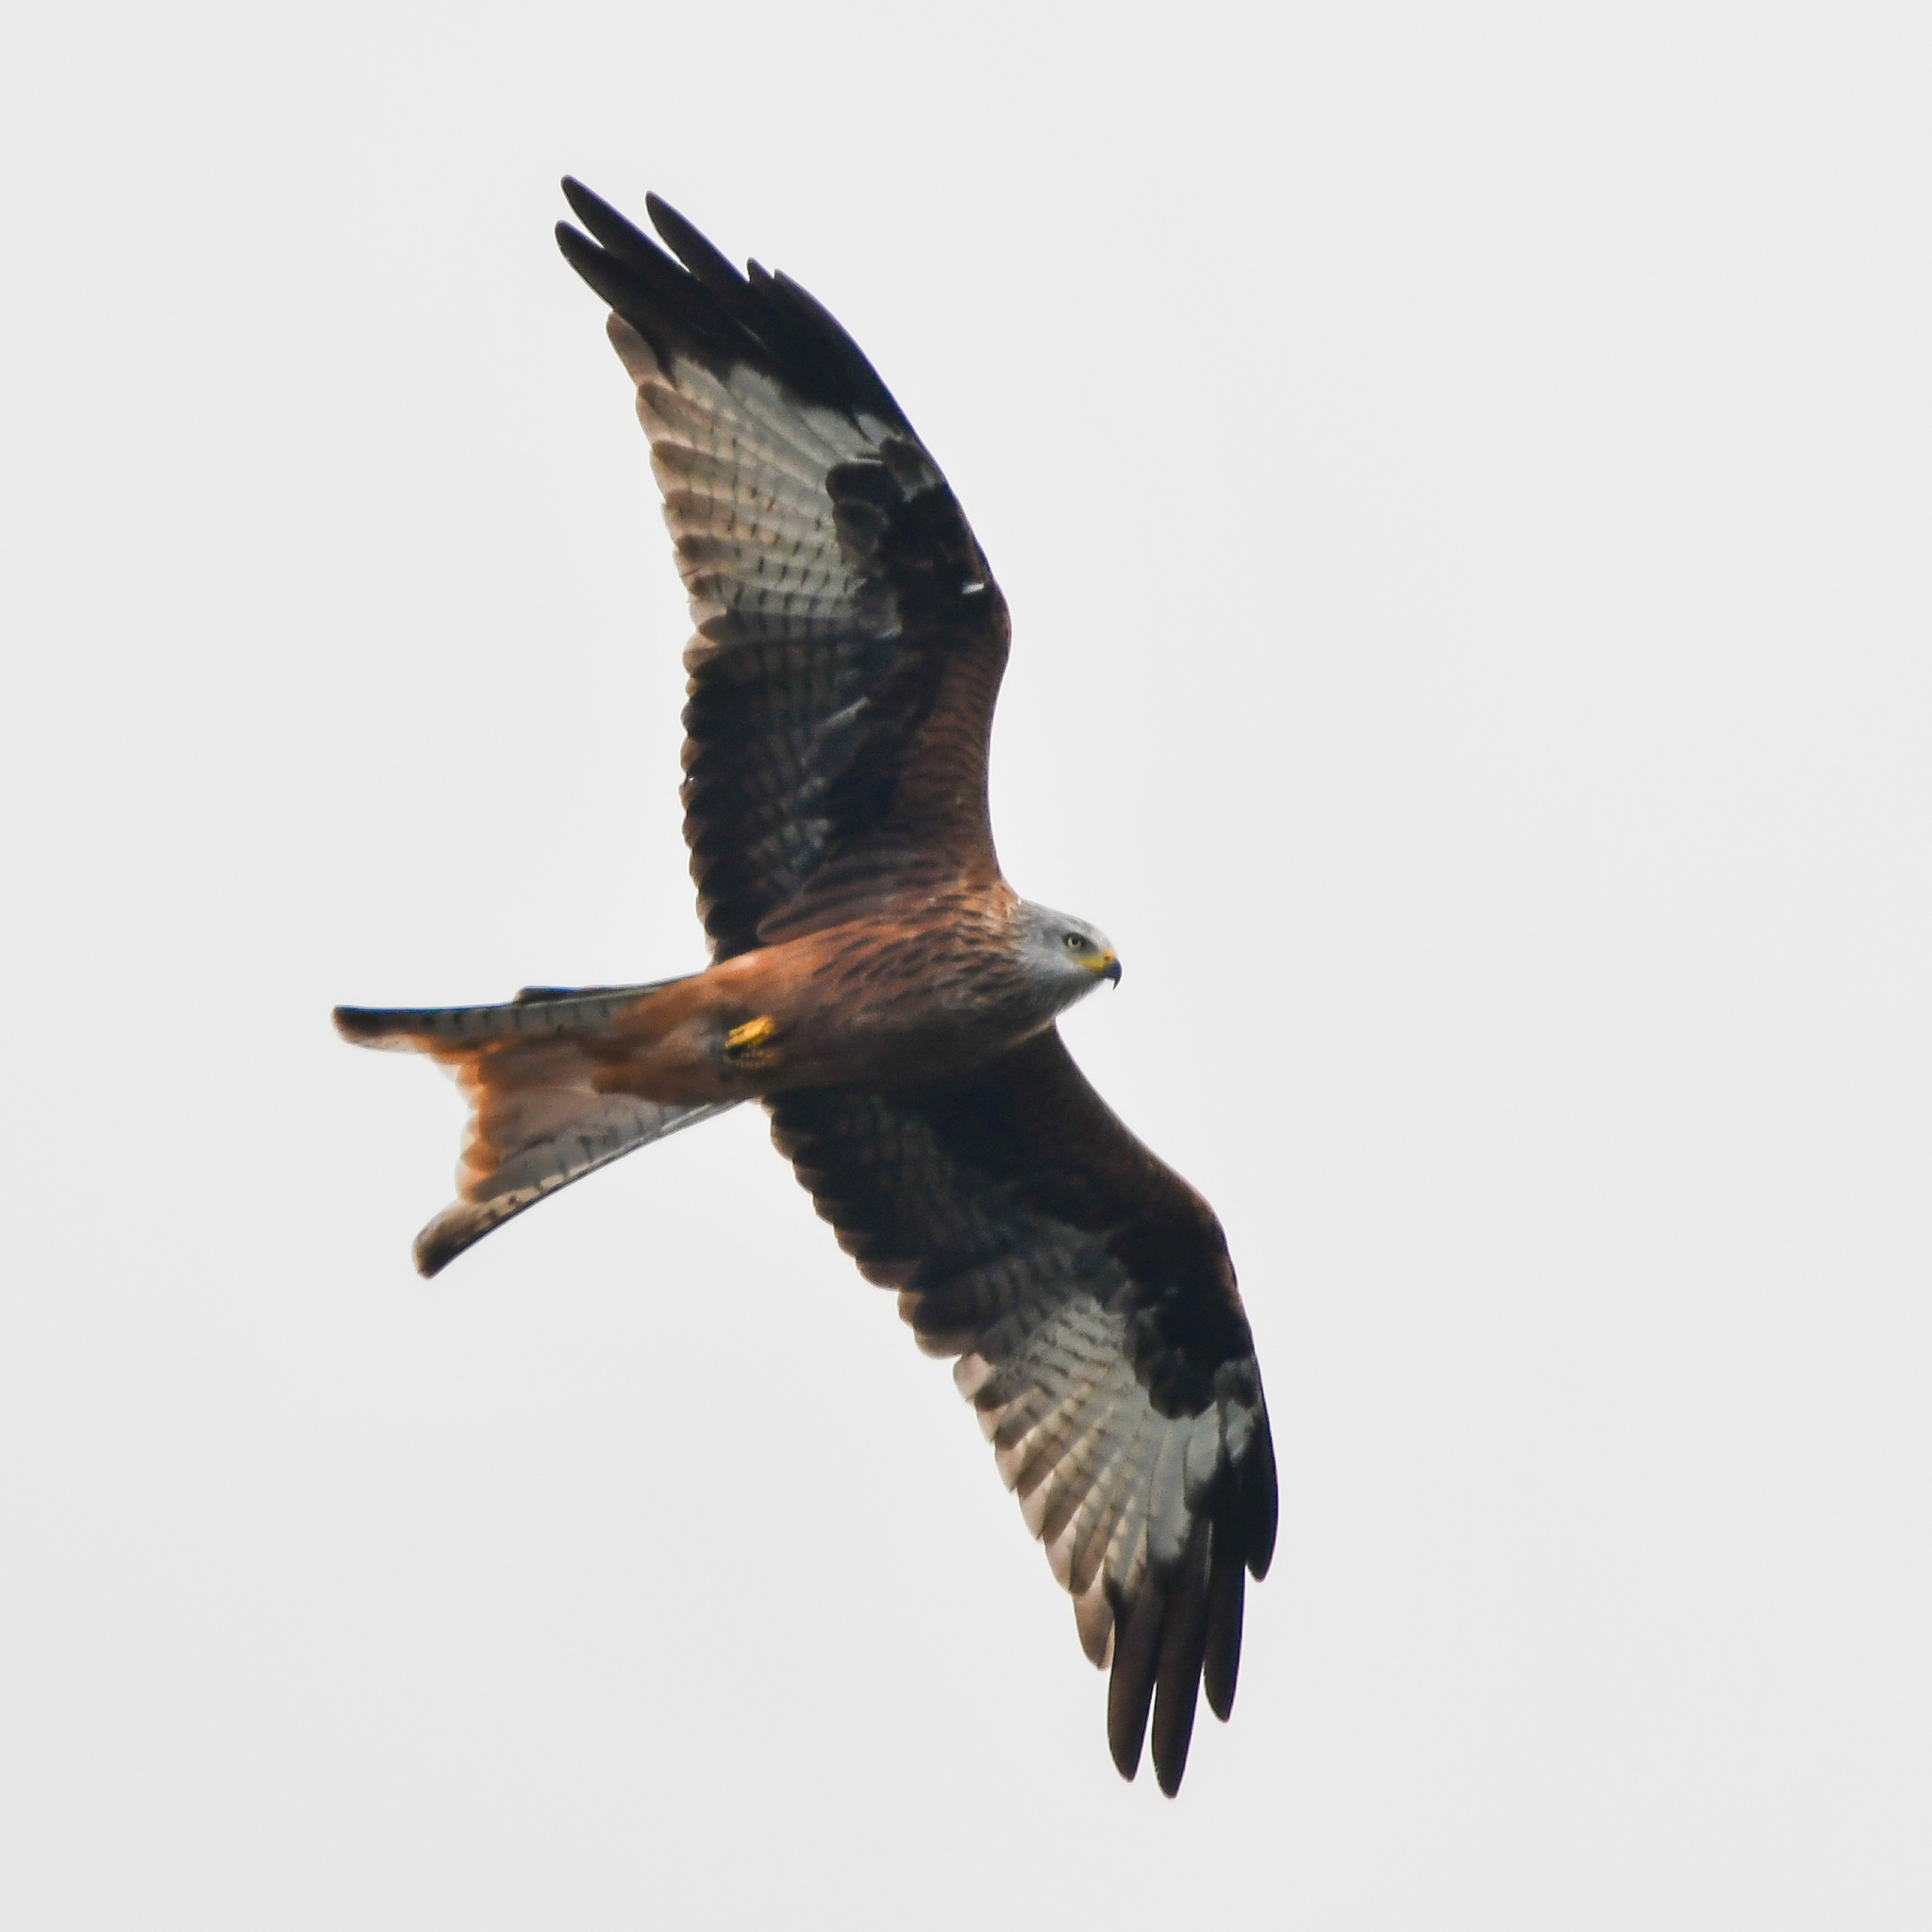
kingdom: Animalia
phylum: Chordata
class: Aves
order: Accipitriformes
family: Accipitridae
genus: Milvus
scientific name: Milvus milvus
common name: Red kite
